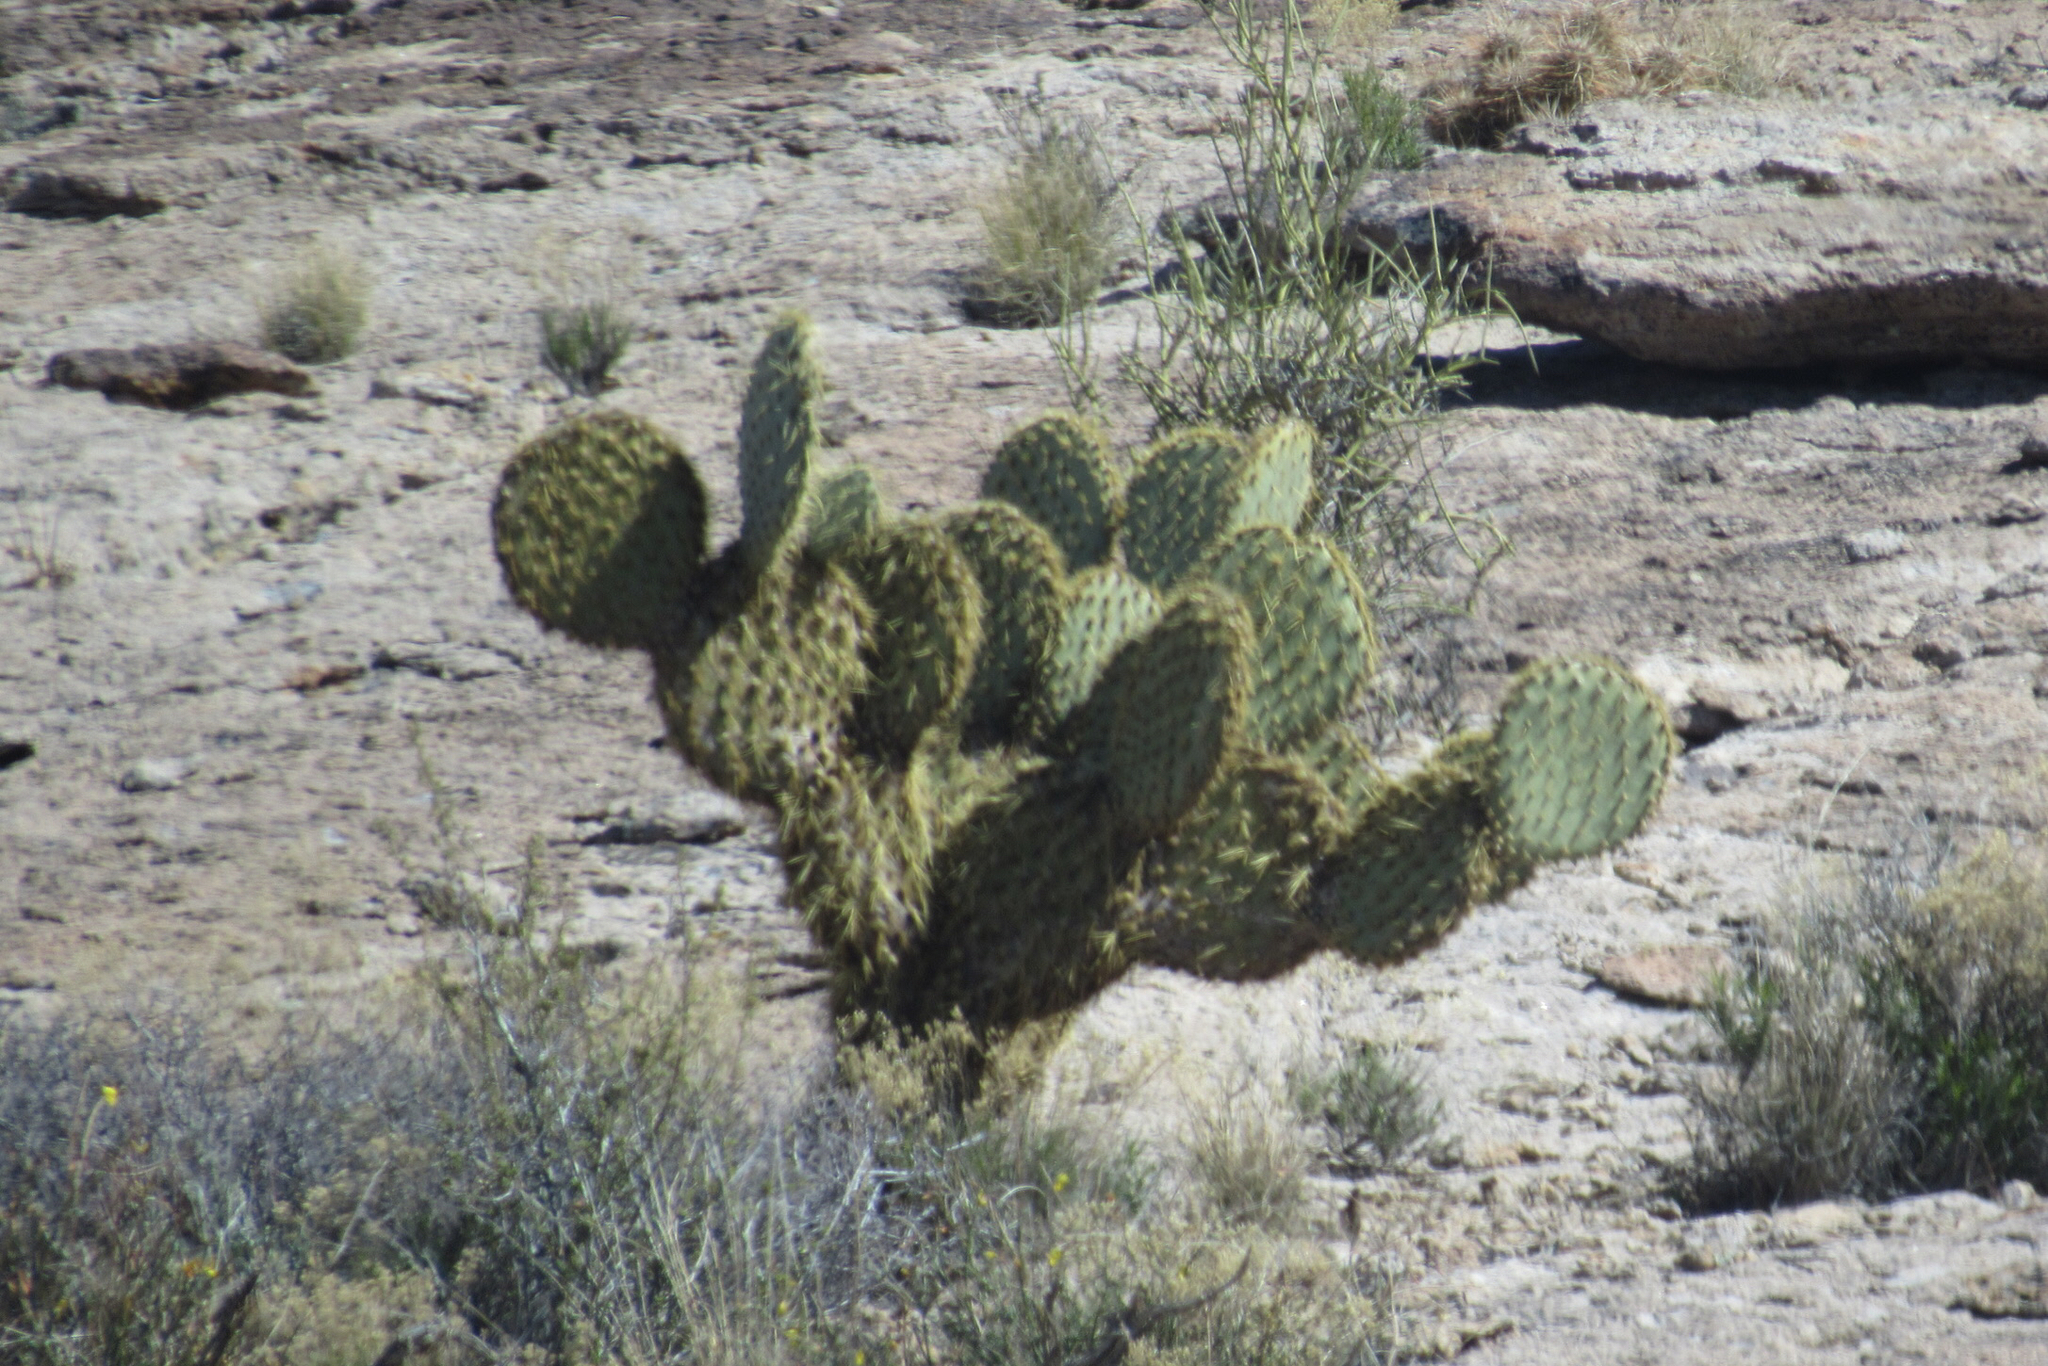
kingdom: Plantae
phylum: Tracheophyta
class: Magnoliopsida
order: Caryophyllales
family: Cactaceae
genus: Opuntia
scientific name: Opuntia chlorotica
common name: Dollar-joint prickly-pear
